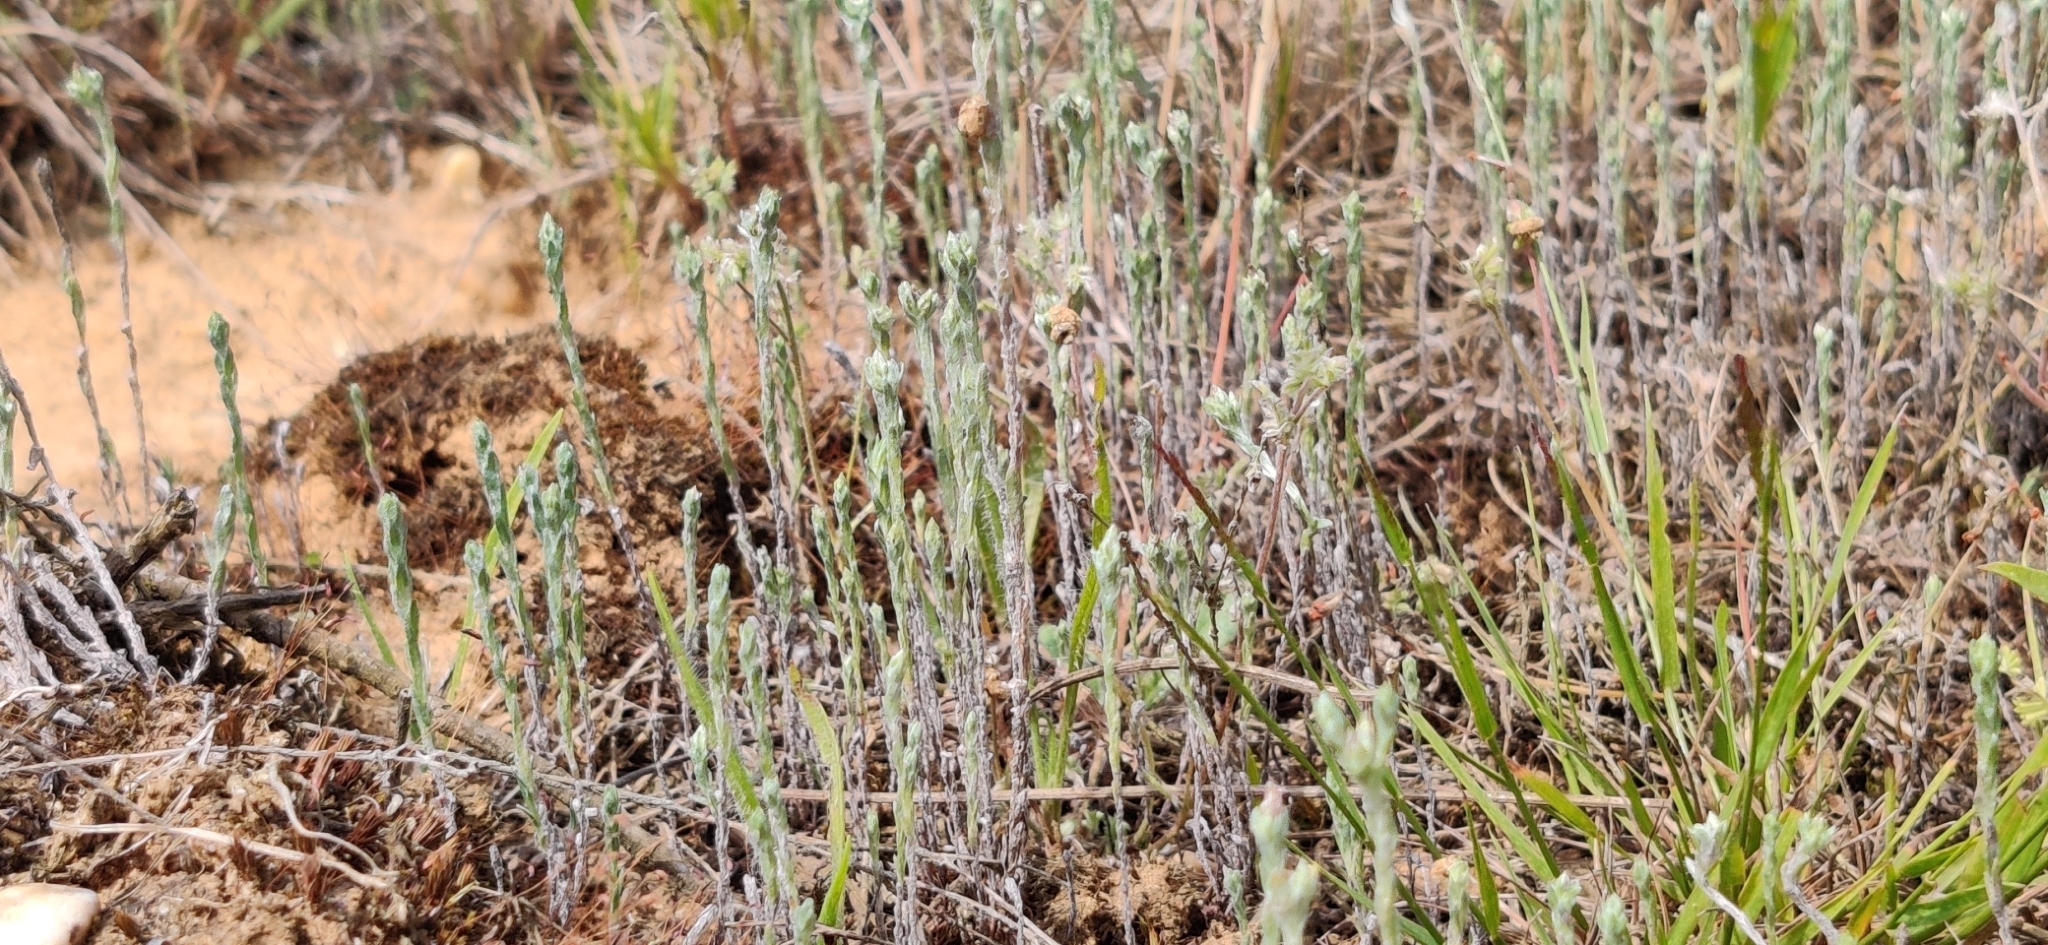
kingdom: Plantae
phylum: Tracheophyta
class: Magnoliopsida
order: Asterales
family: Asteraceae
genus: Logfia
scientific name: Logfia minima
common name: Little cottonrose
